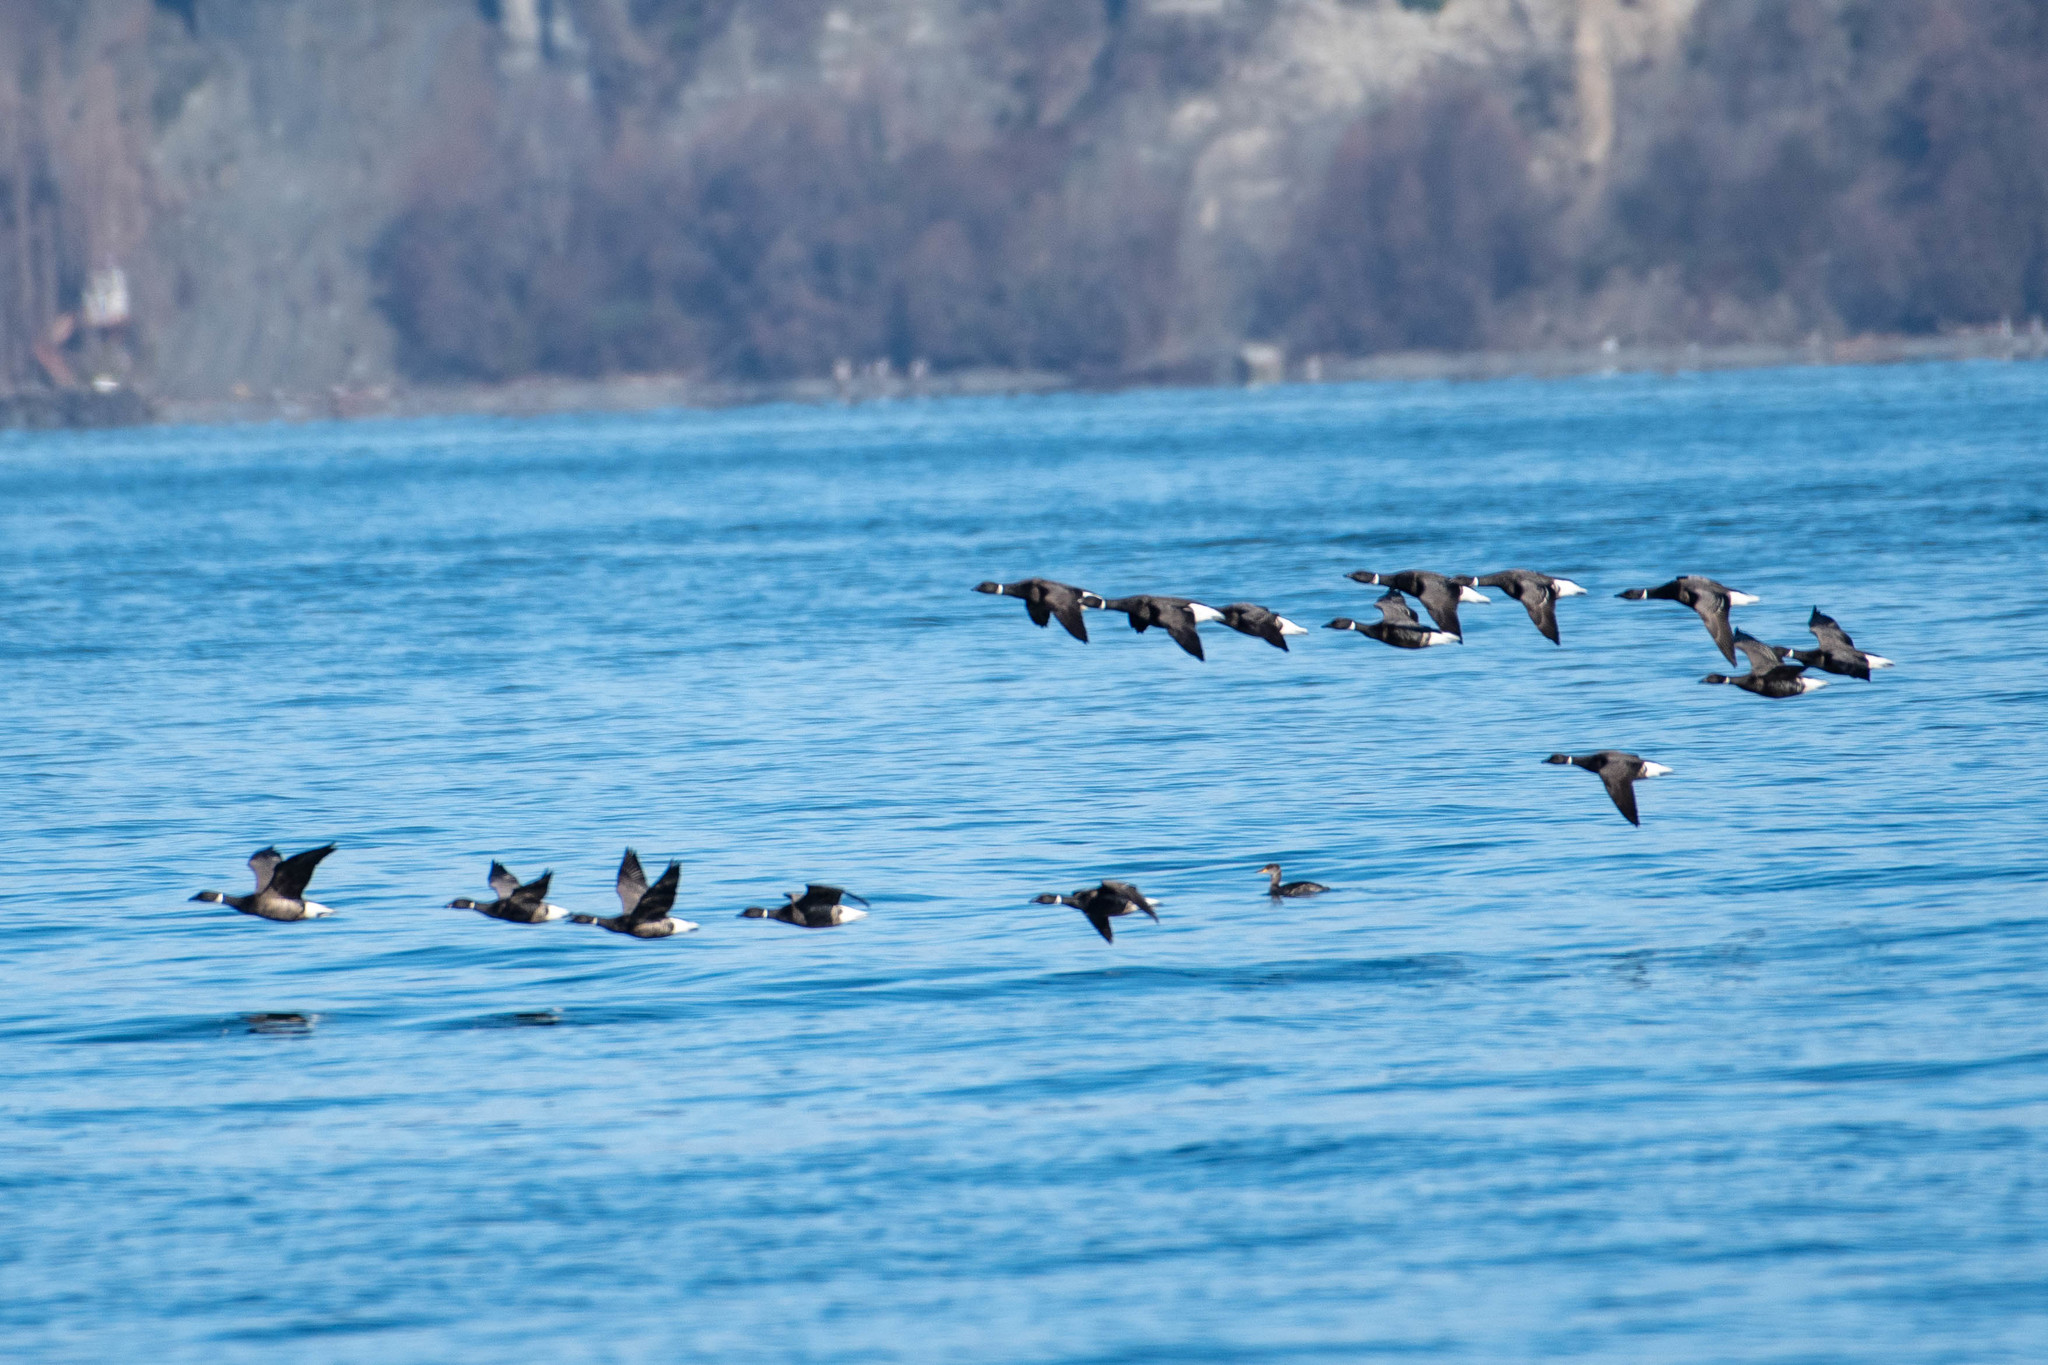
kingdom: Animalia
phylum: Chordata
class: Aves
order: Anseriformes
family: Anatidae
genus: Branta
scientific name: Branta bernicla
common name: Brant goose
